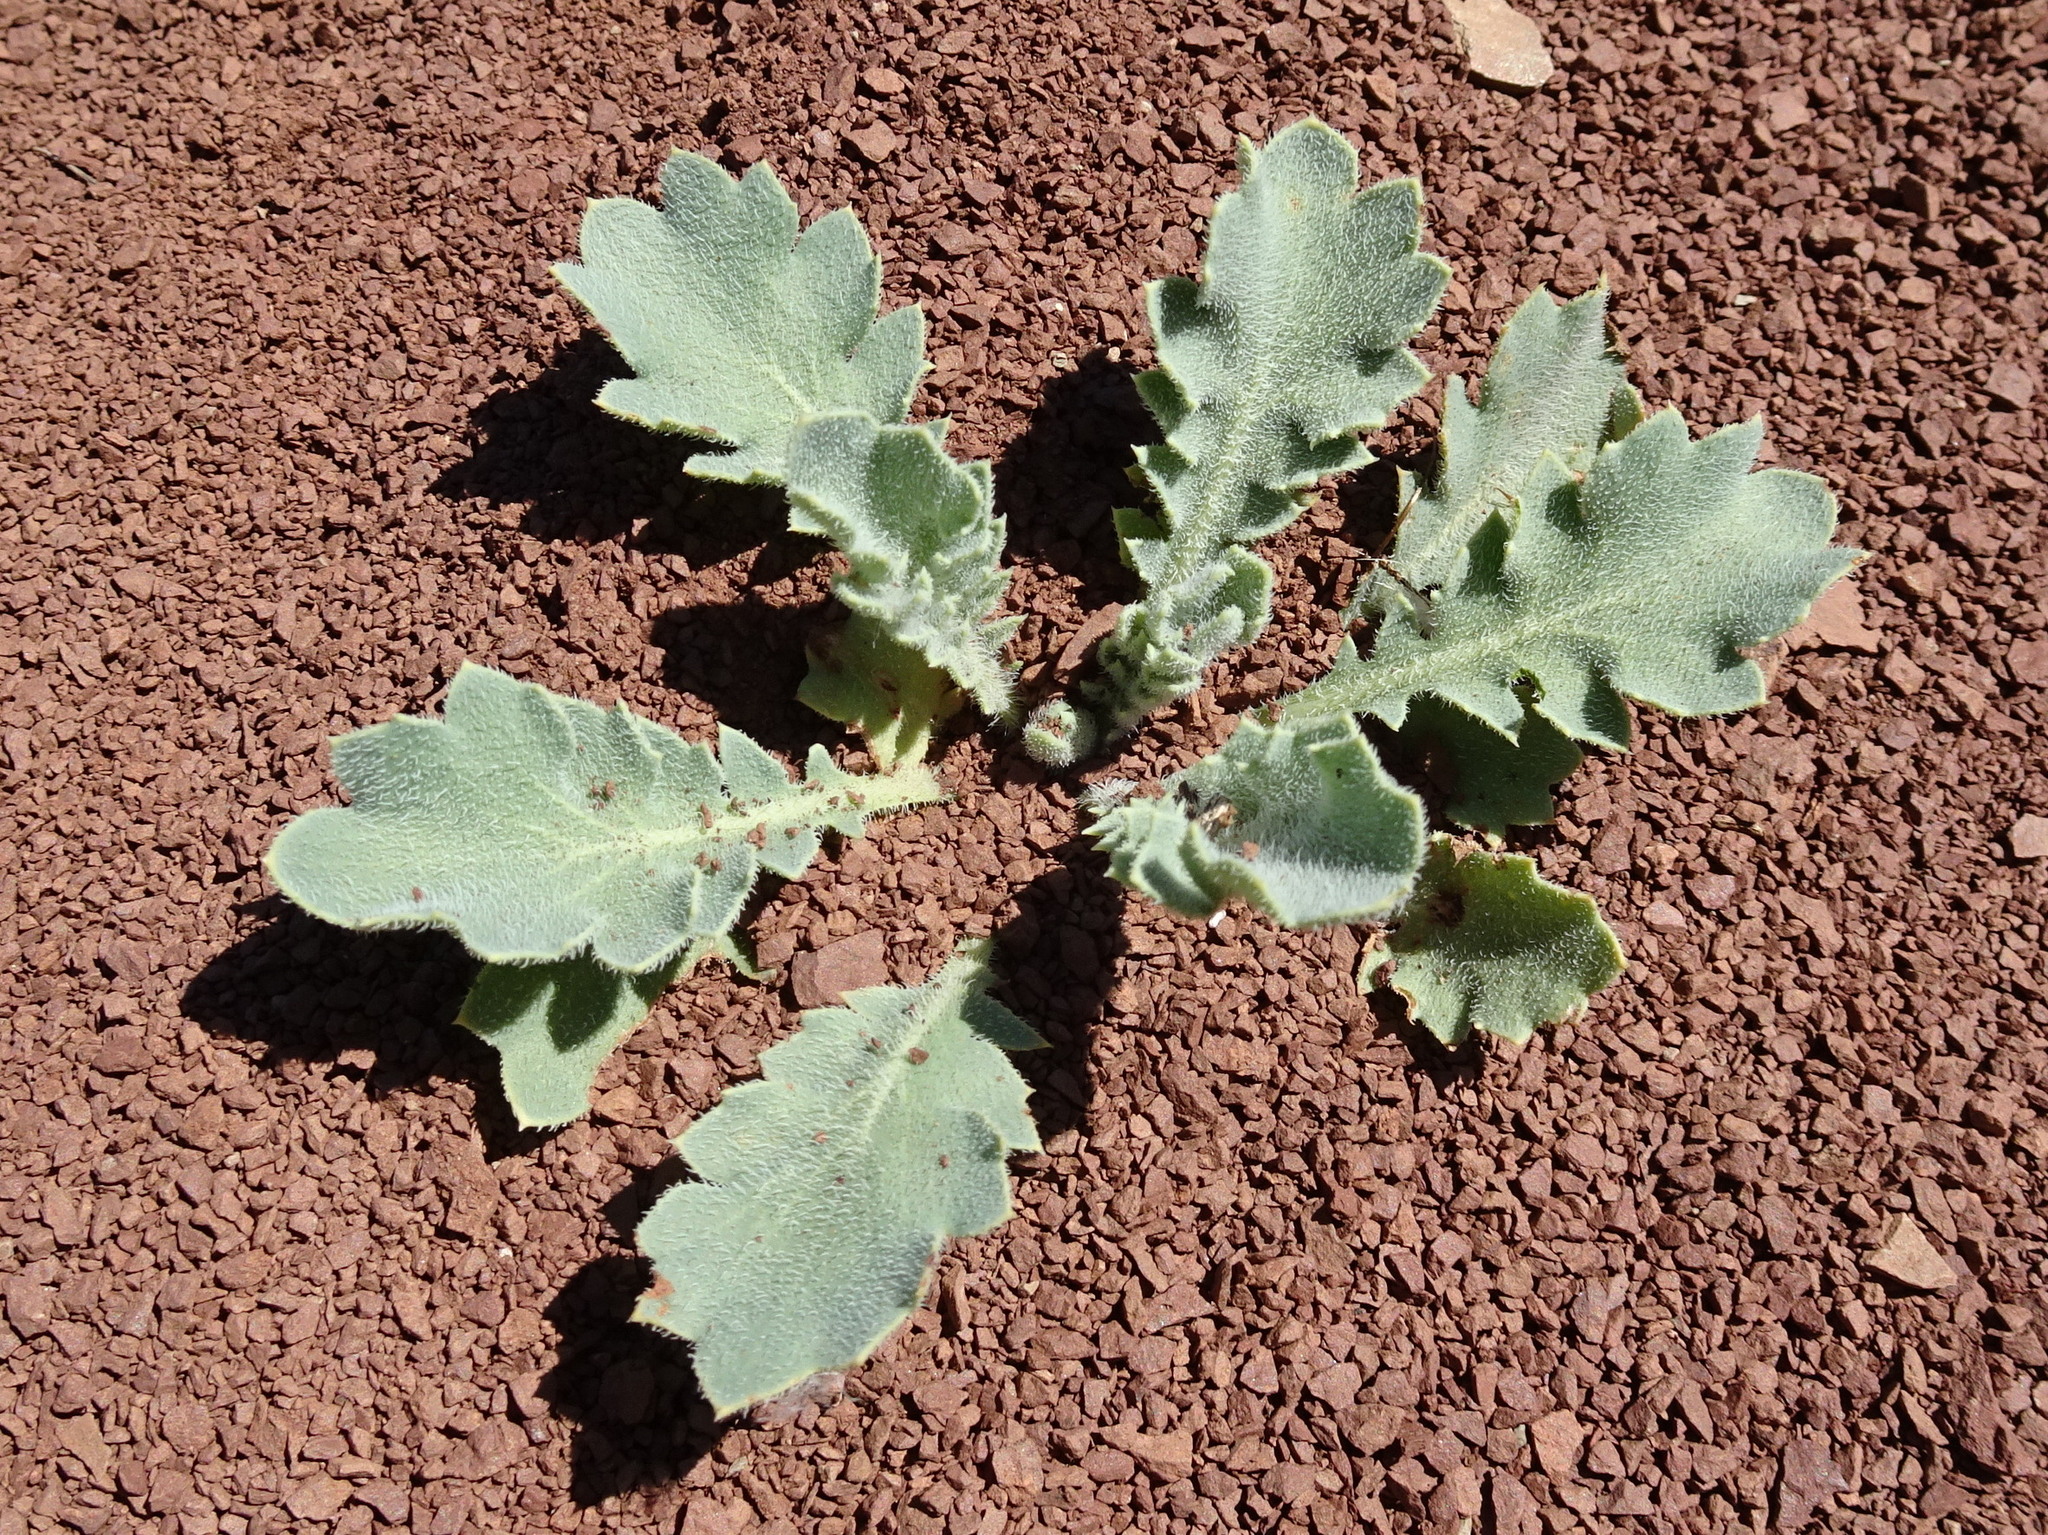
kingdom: Plantae
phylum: Tracheophyta
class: Magnoliopsida
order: Ranunculales
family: Papaveraceae
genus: Glaucium
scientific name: Glaucium flavum
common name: Yellow horned-poppy
